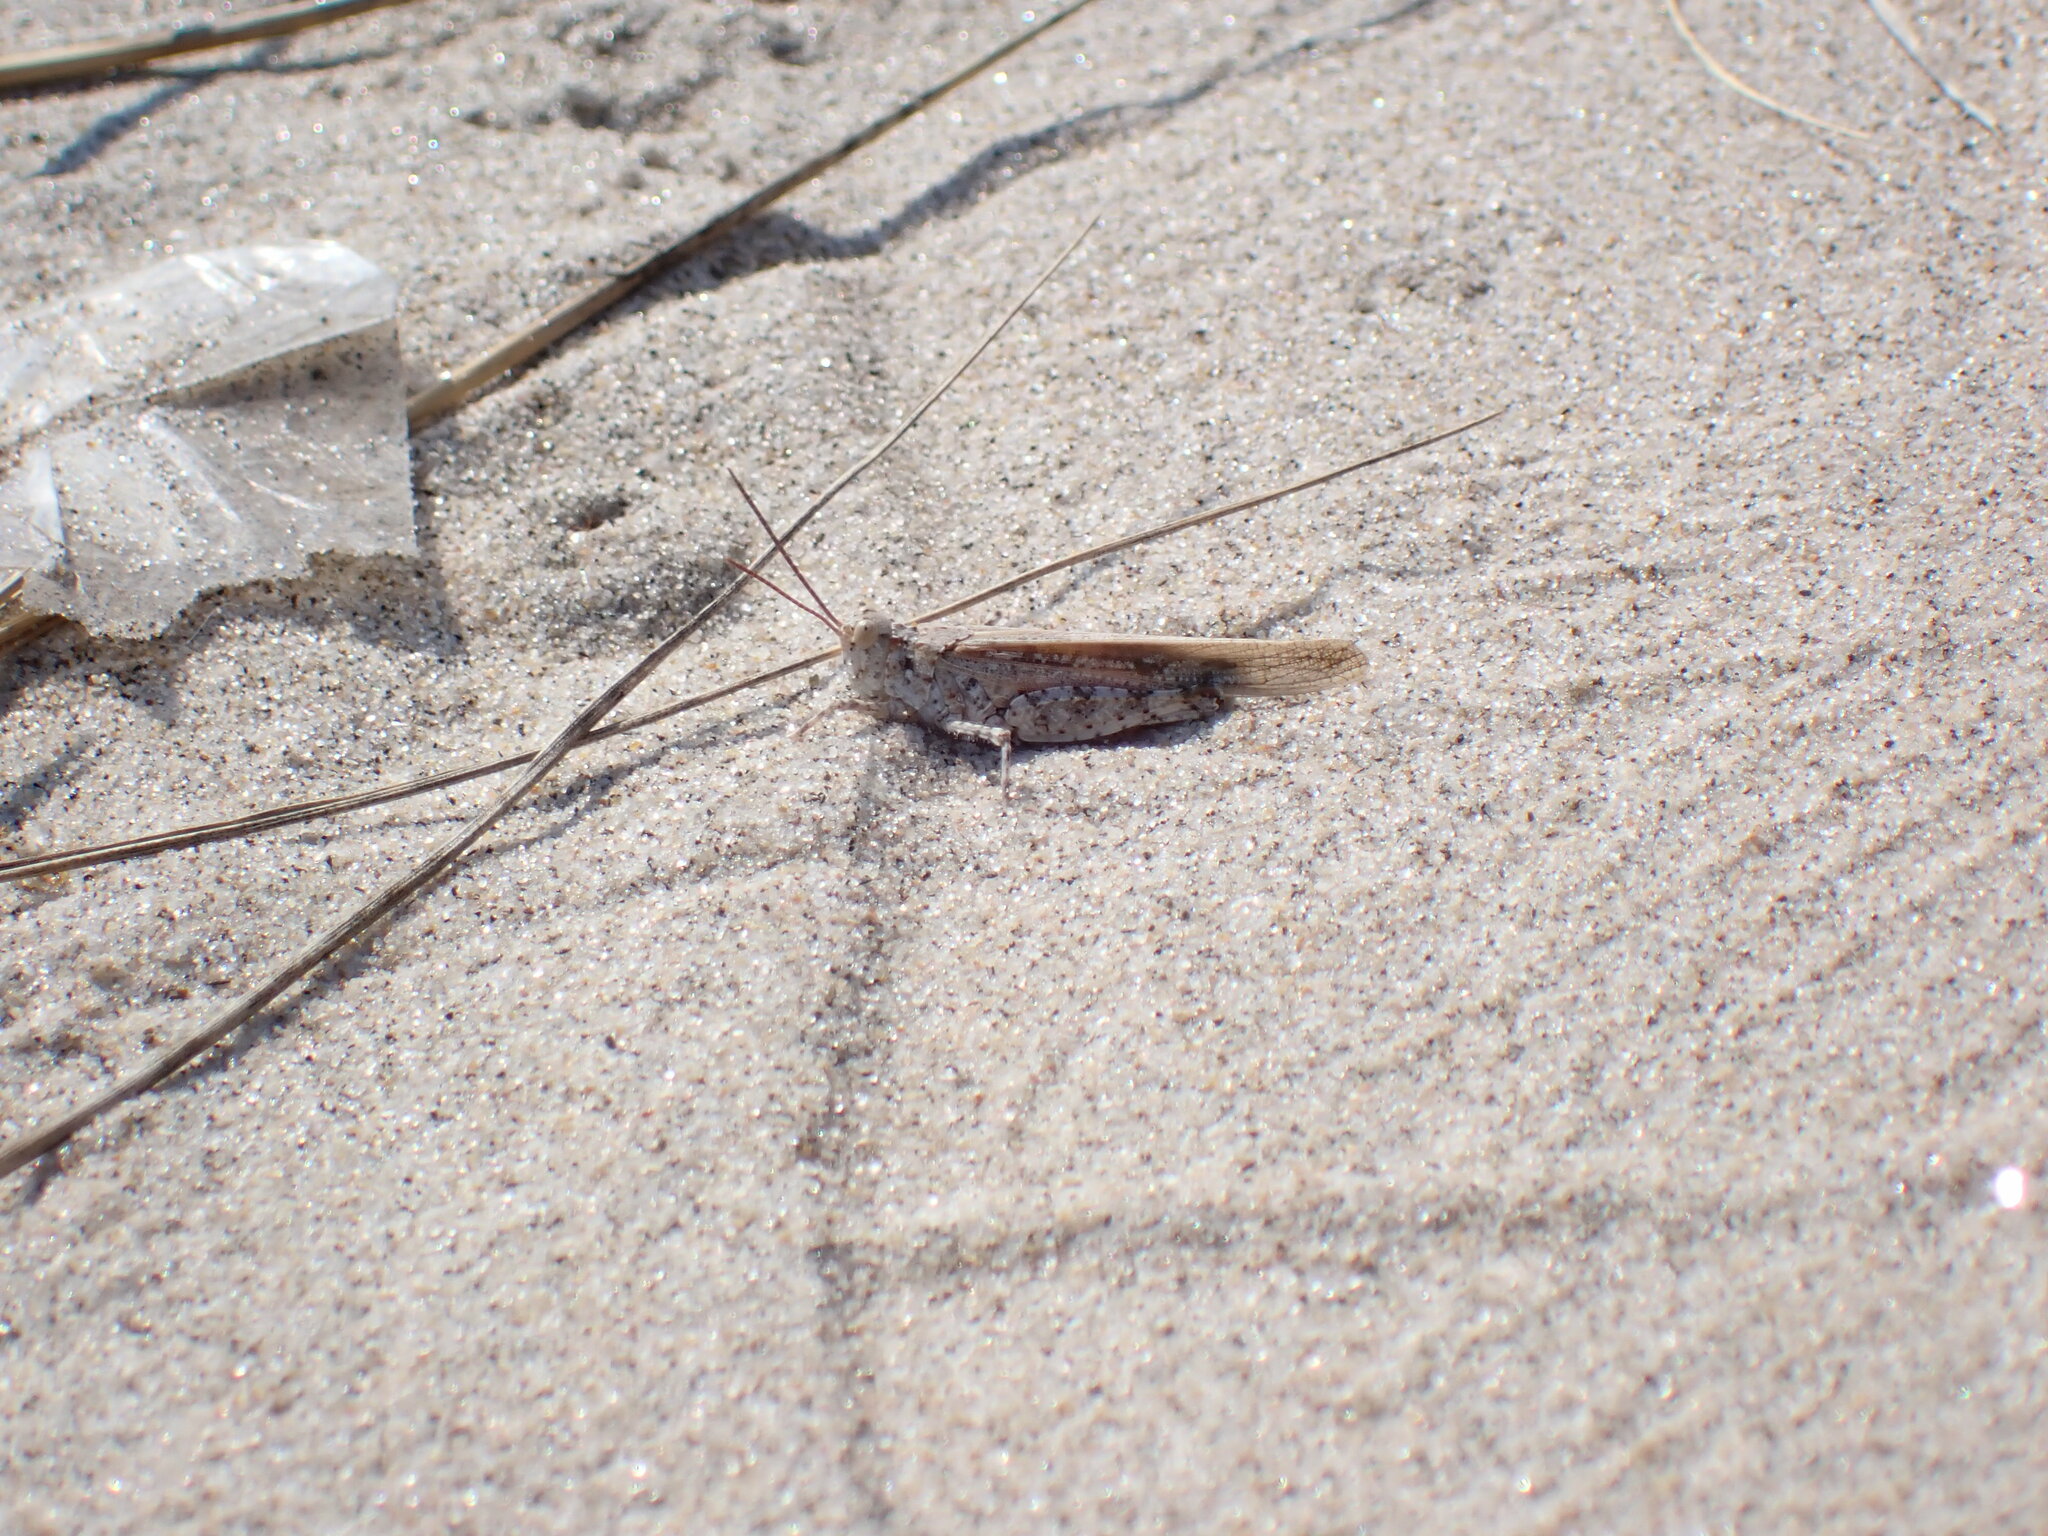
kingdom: Animalia
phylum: Arthropoda
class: Insecta
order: Orthoptera
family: Acrididae
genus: Trimerotropis
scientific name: Trimerotropis maritima
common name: Seaside locust
